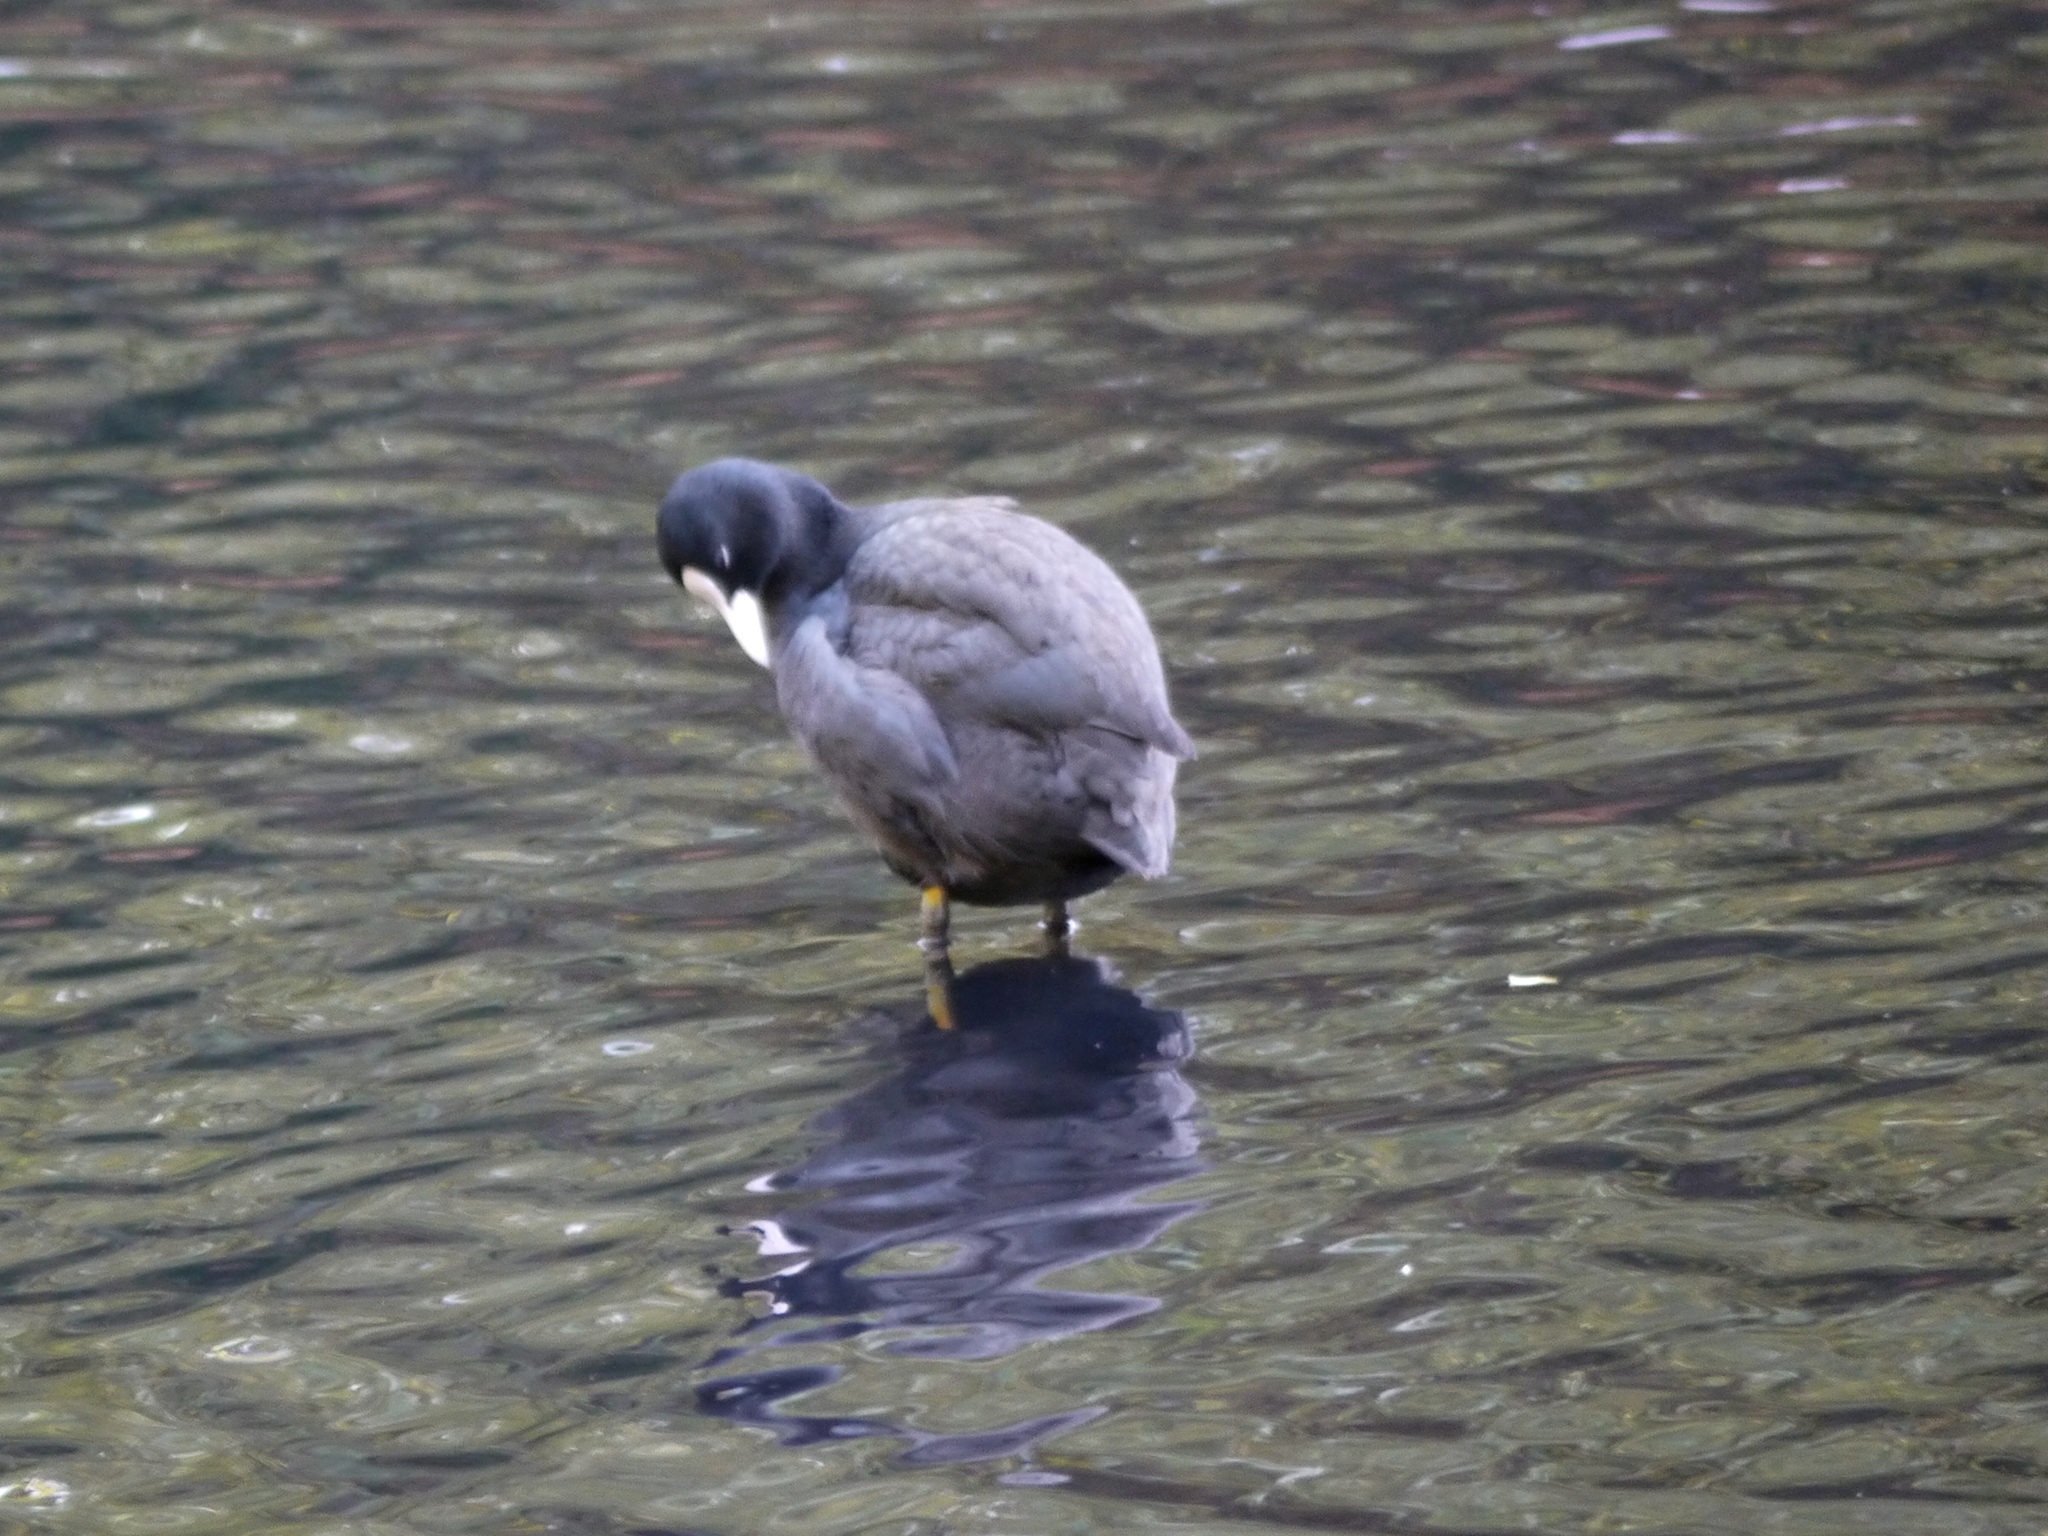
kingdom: Animalia
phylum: Chordata
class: Aves
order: Gruiformes
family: Rallidae
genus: Fulica
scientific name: Fulica atra
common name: Eurasian coot
